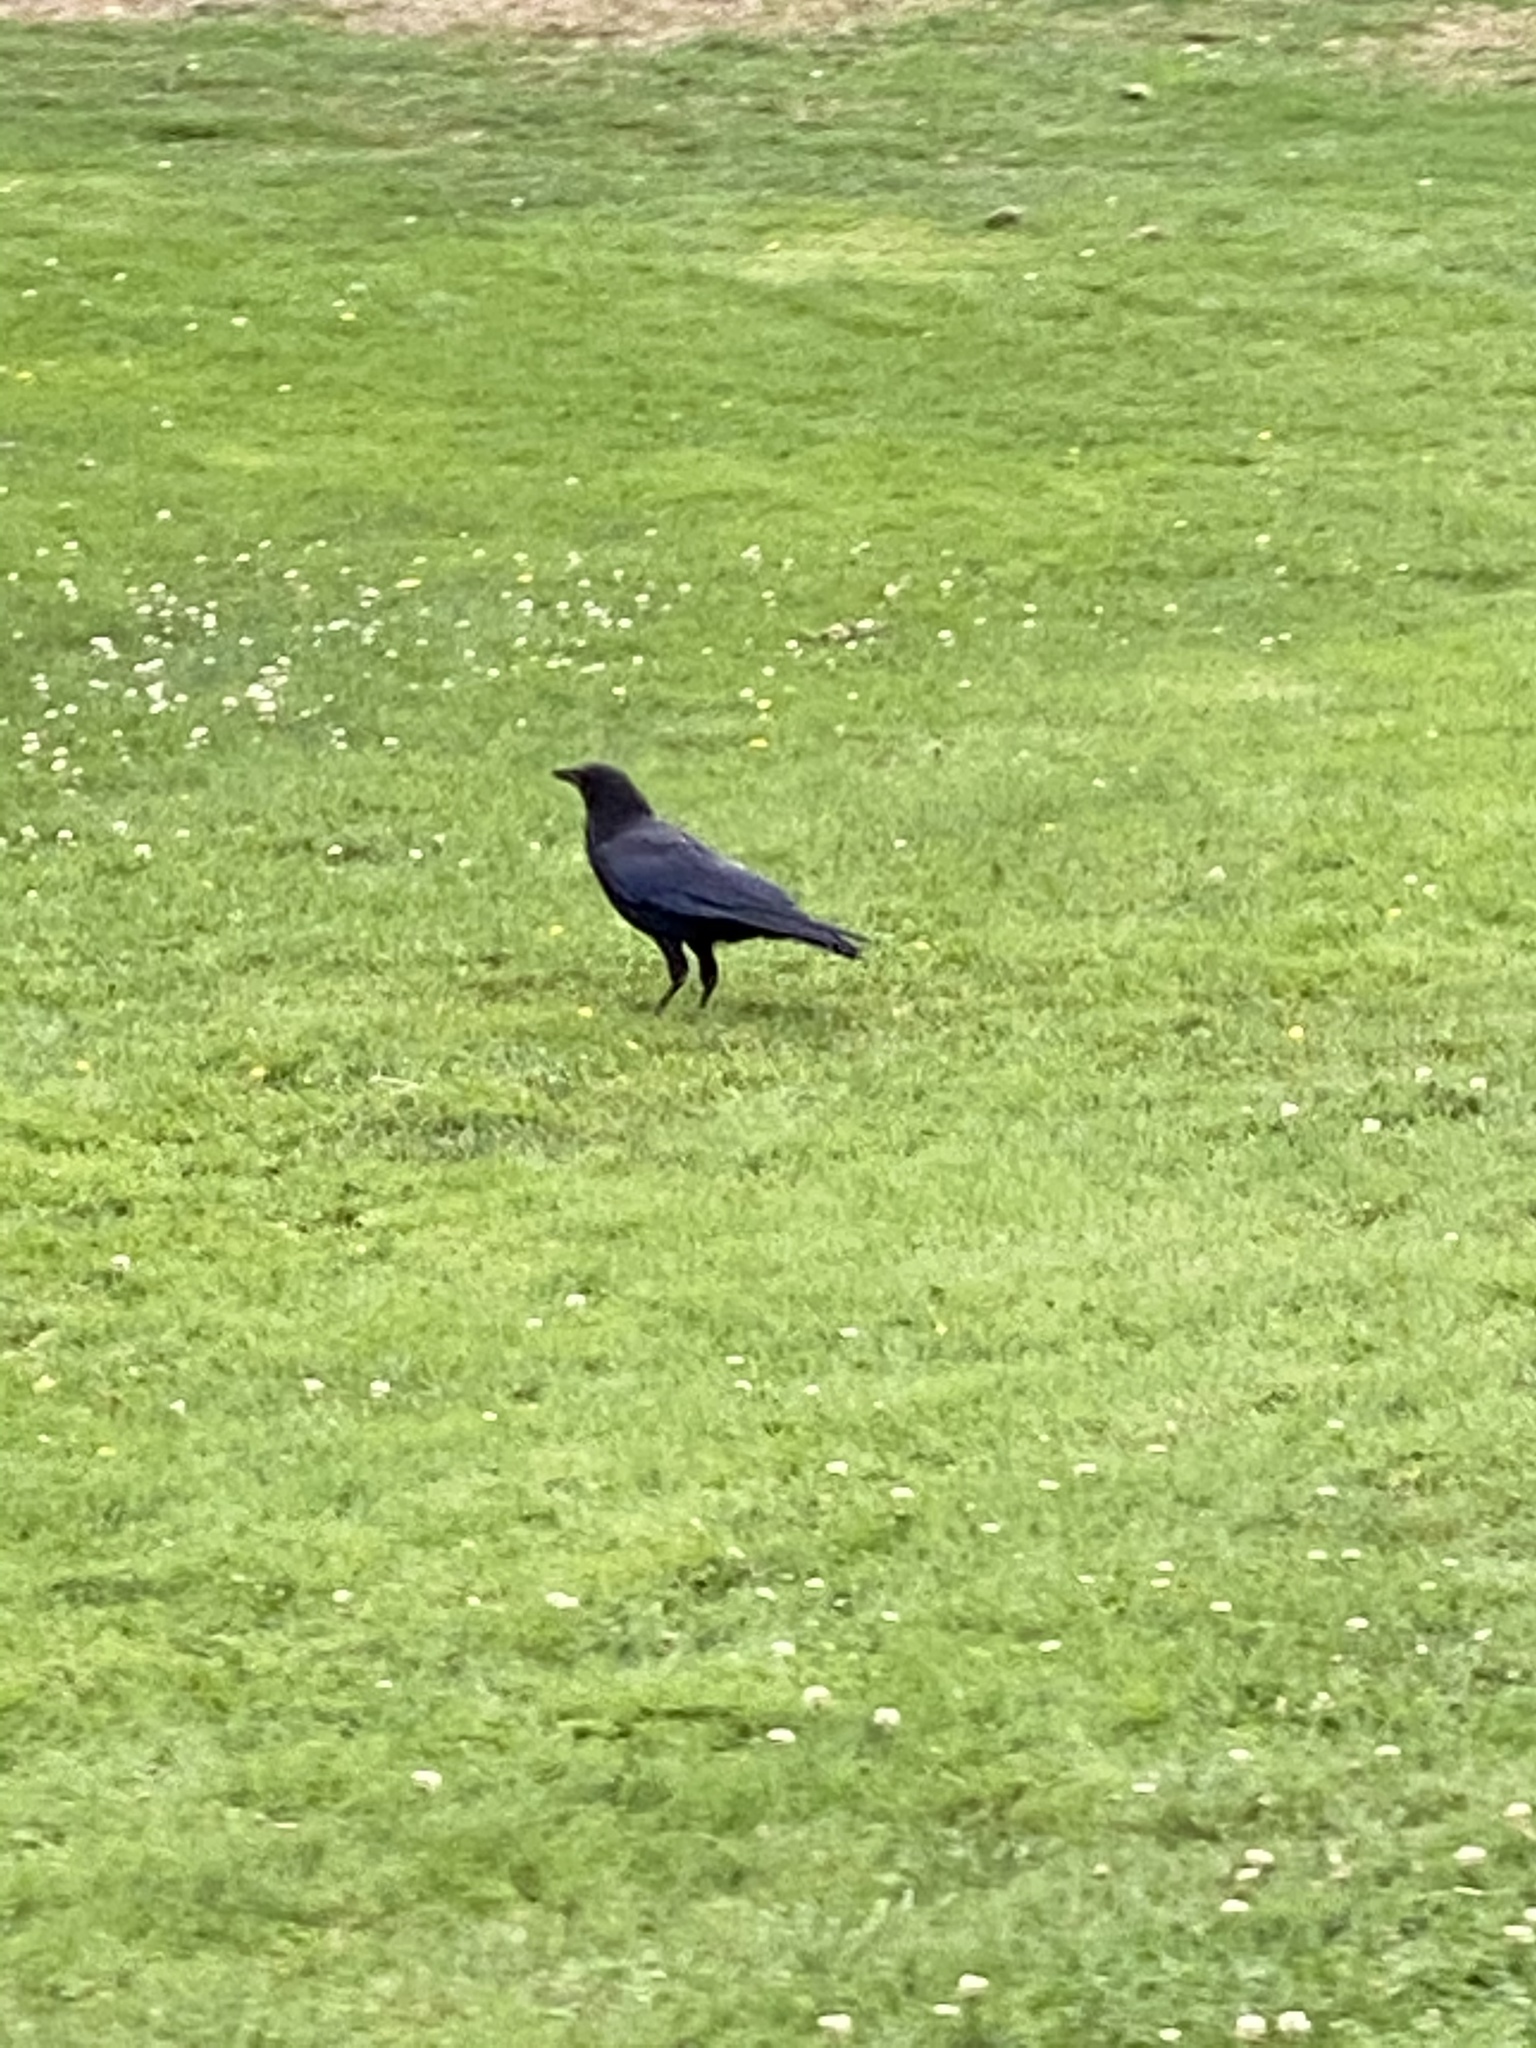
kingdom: Animalia
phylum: Chordata
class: Aves
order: Passeriformes
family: Corvidae
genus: Corvus
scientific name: Corvus brachyrhynchos
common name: American crow
